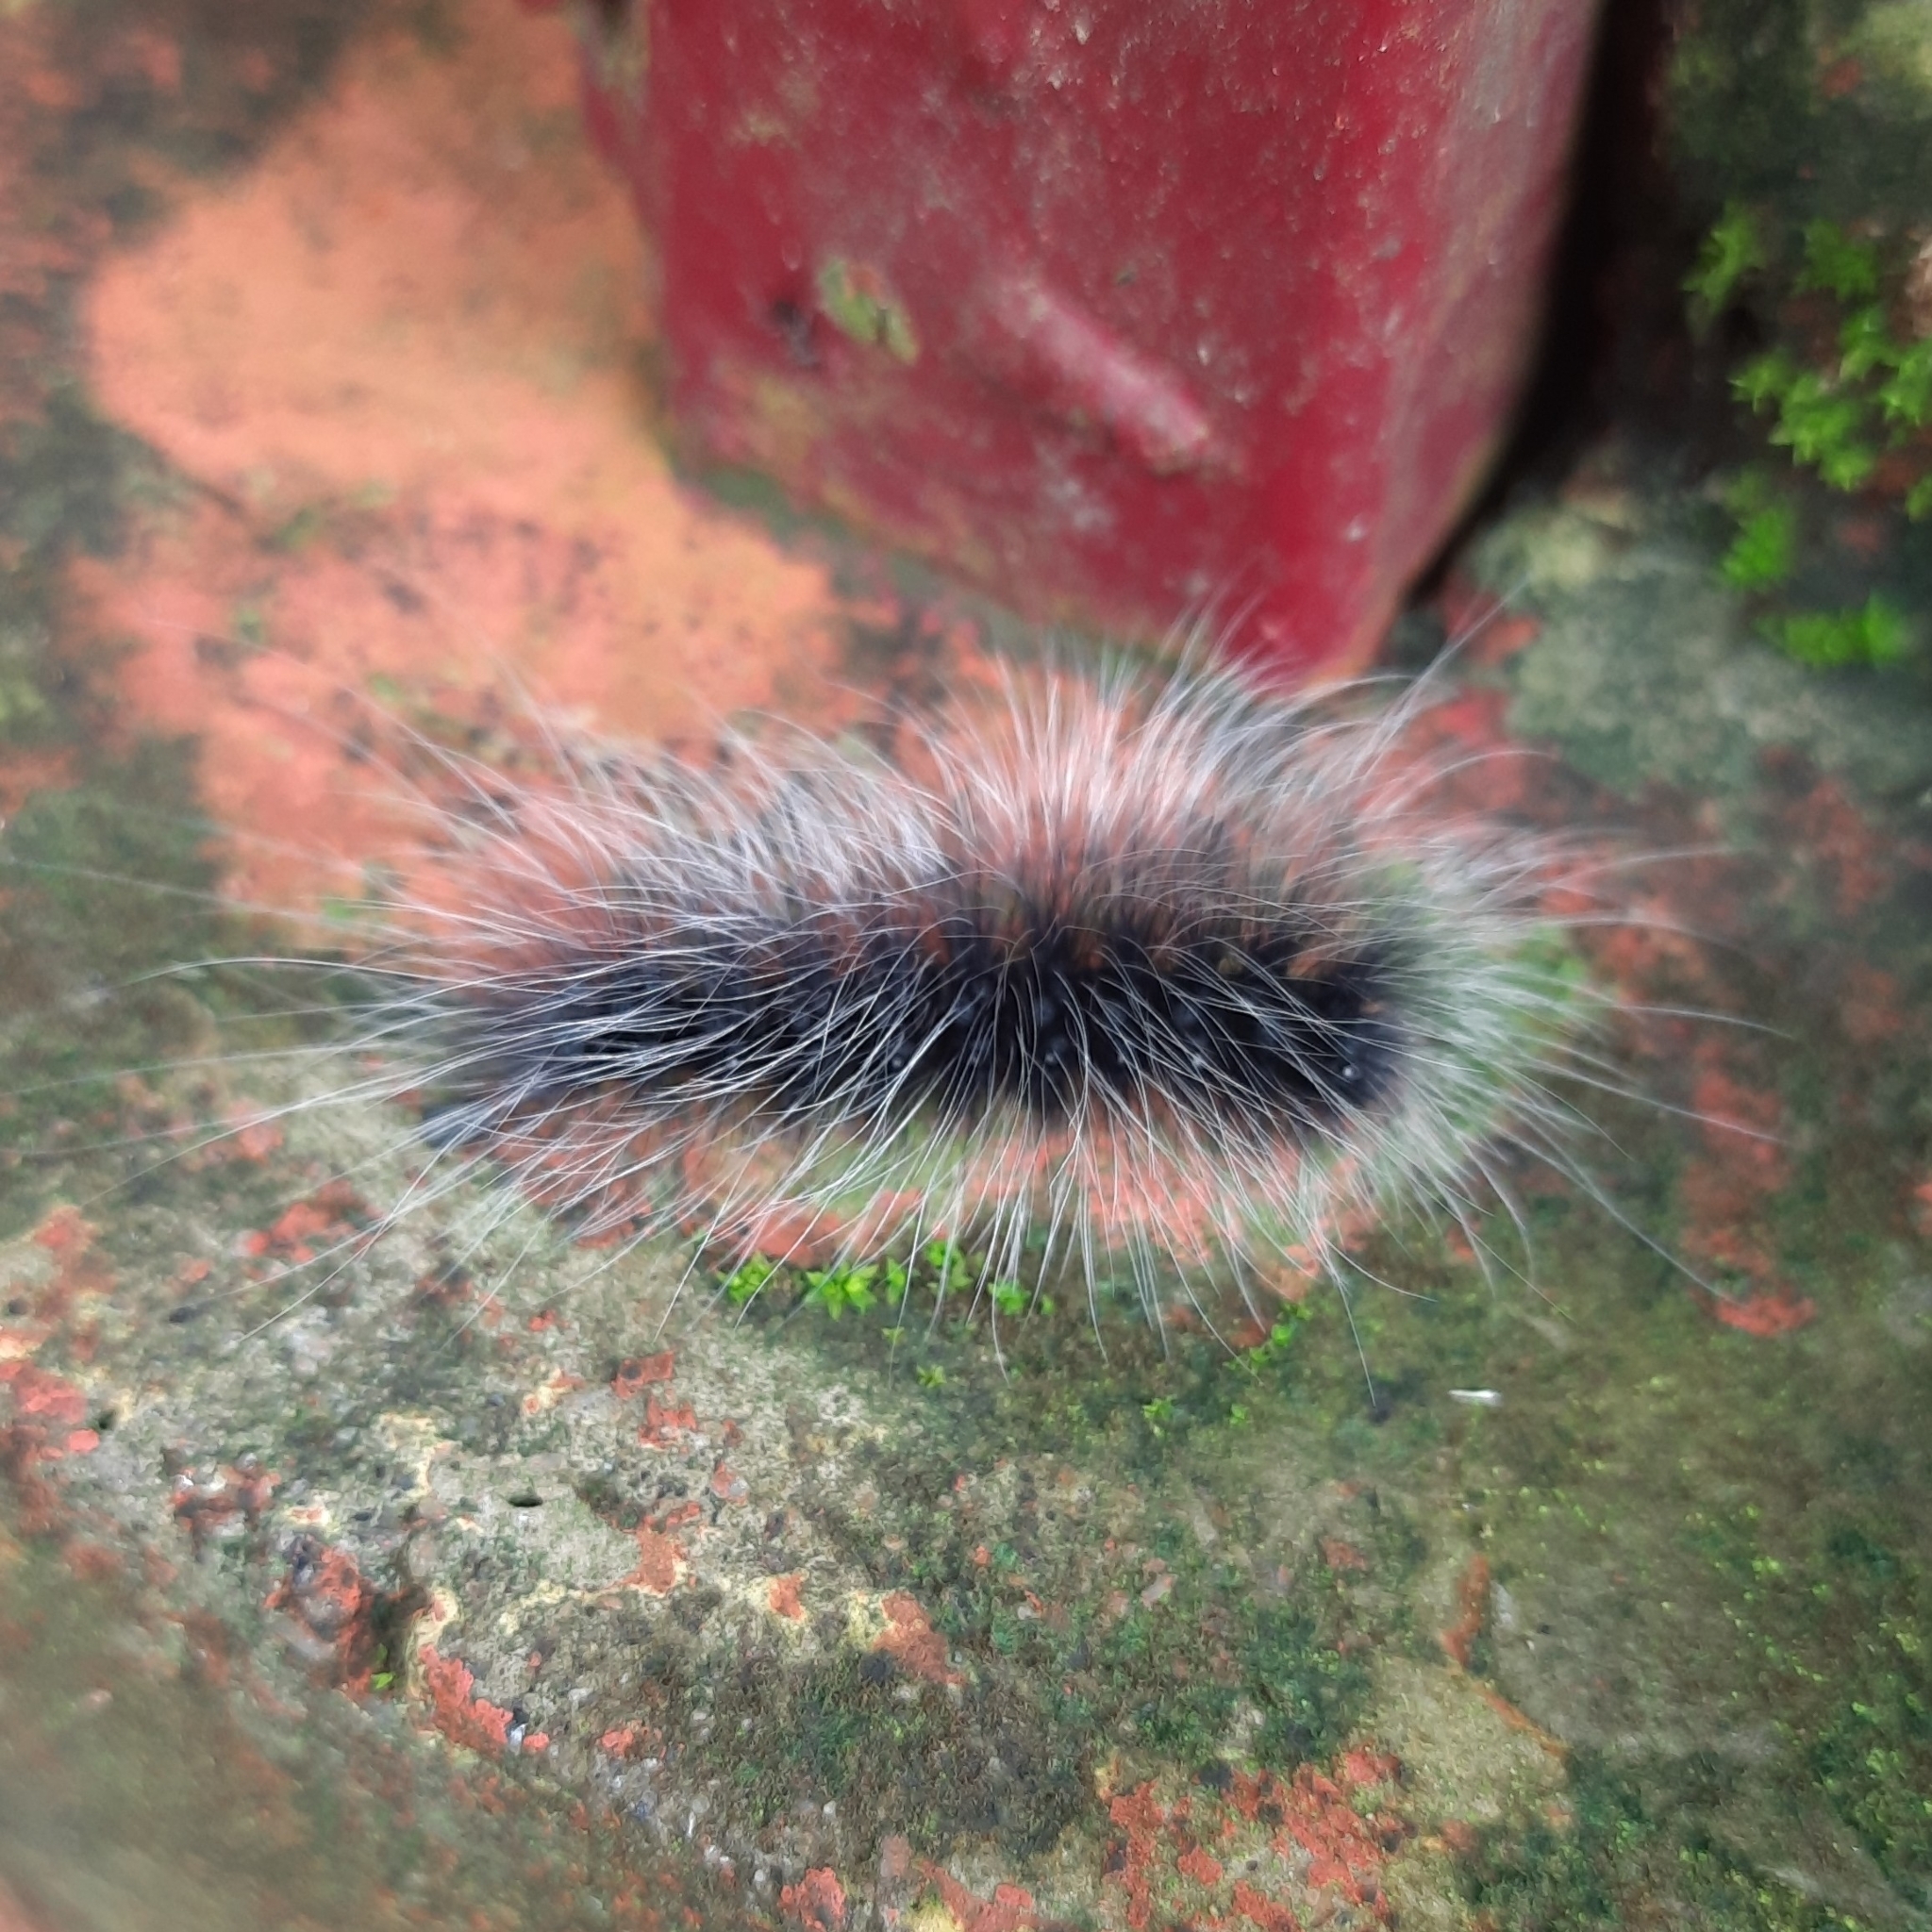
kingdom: Animalia
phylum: Arthropoda
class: Insecta
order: Lepidoptera
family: Erebidae
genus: Macrobrochis
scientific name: Macrobrochis gigas
